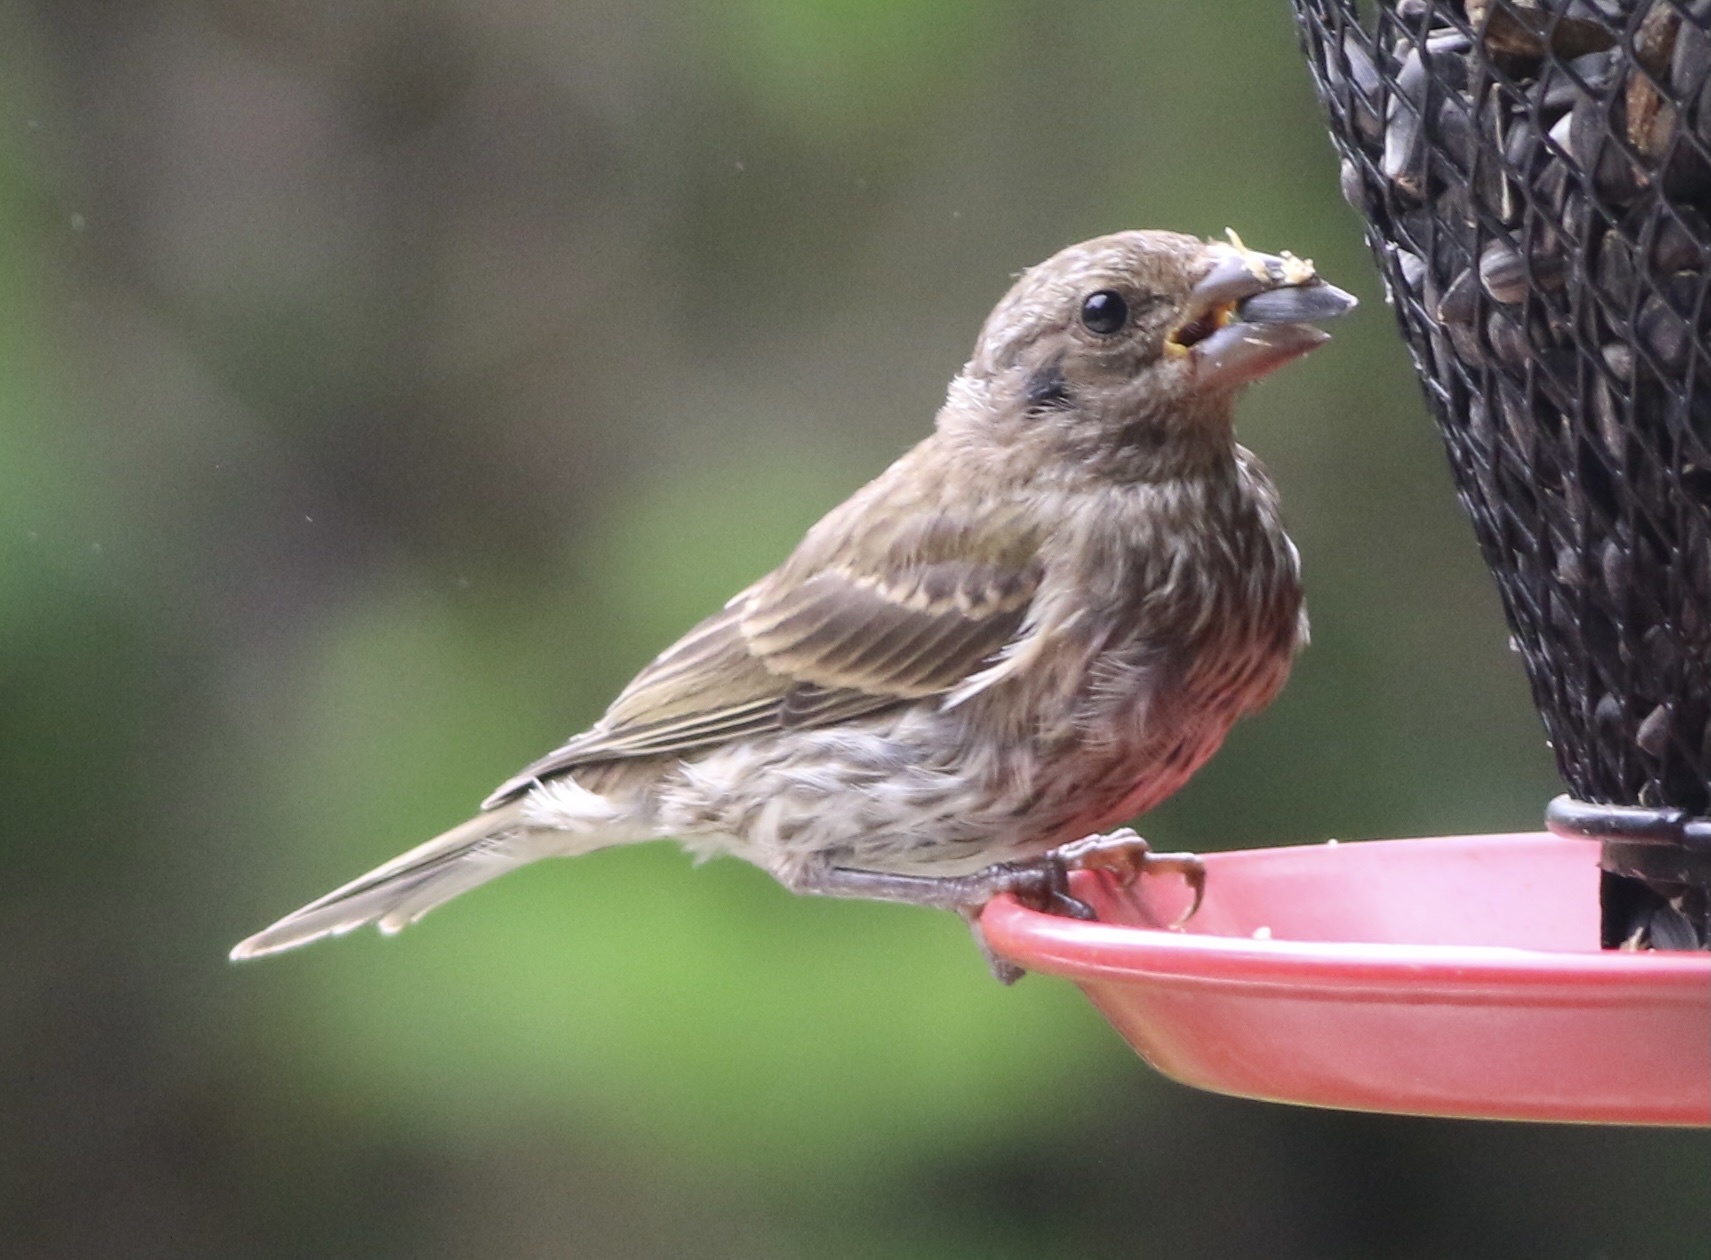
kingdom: Animalia
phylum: Chordata
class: Aves
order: Passeriformes
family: Fringillidae
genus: Haemorhous
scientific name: Haemorhous purpureus
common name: Purple finch
